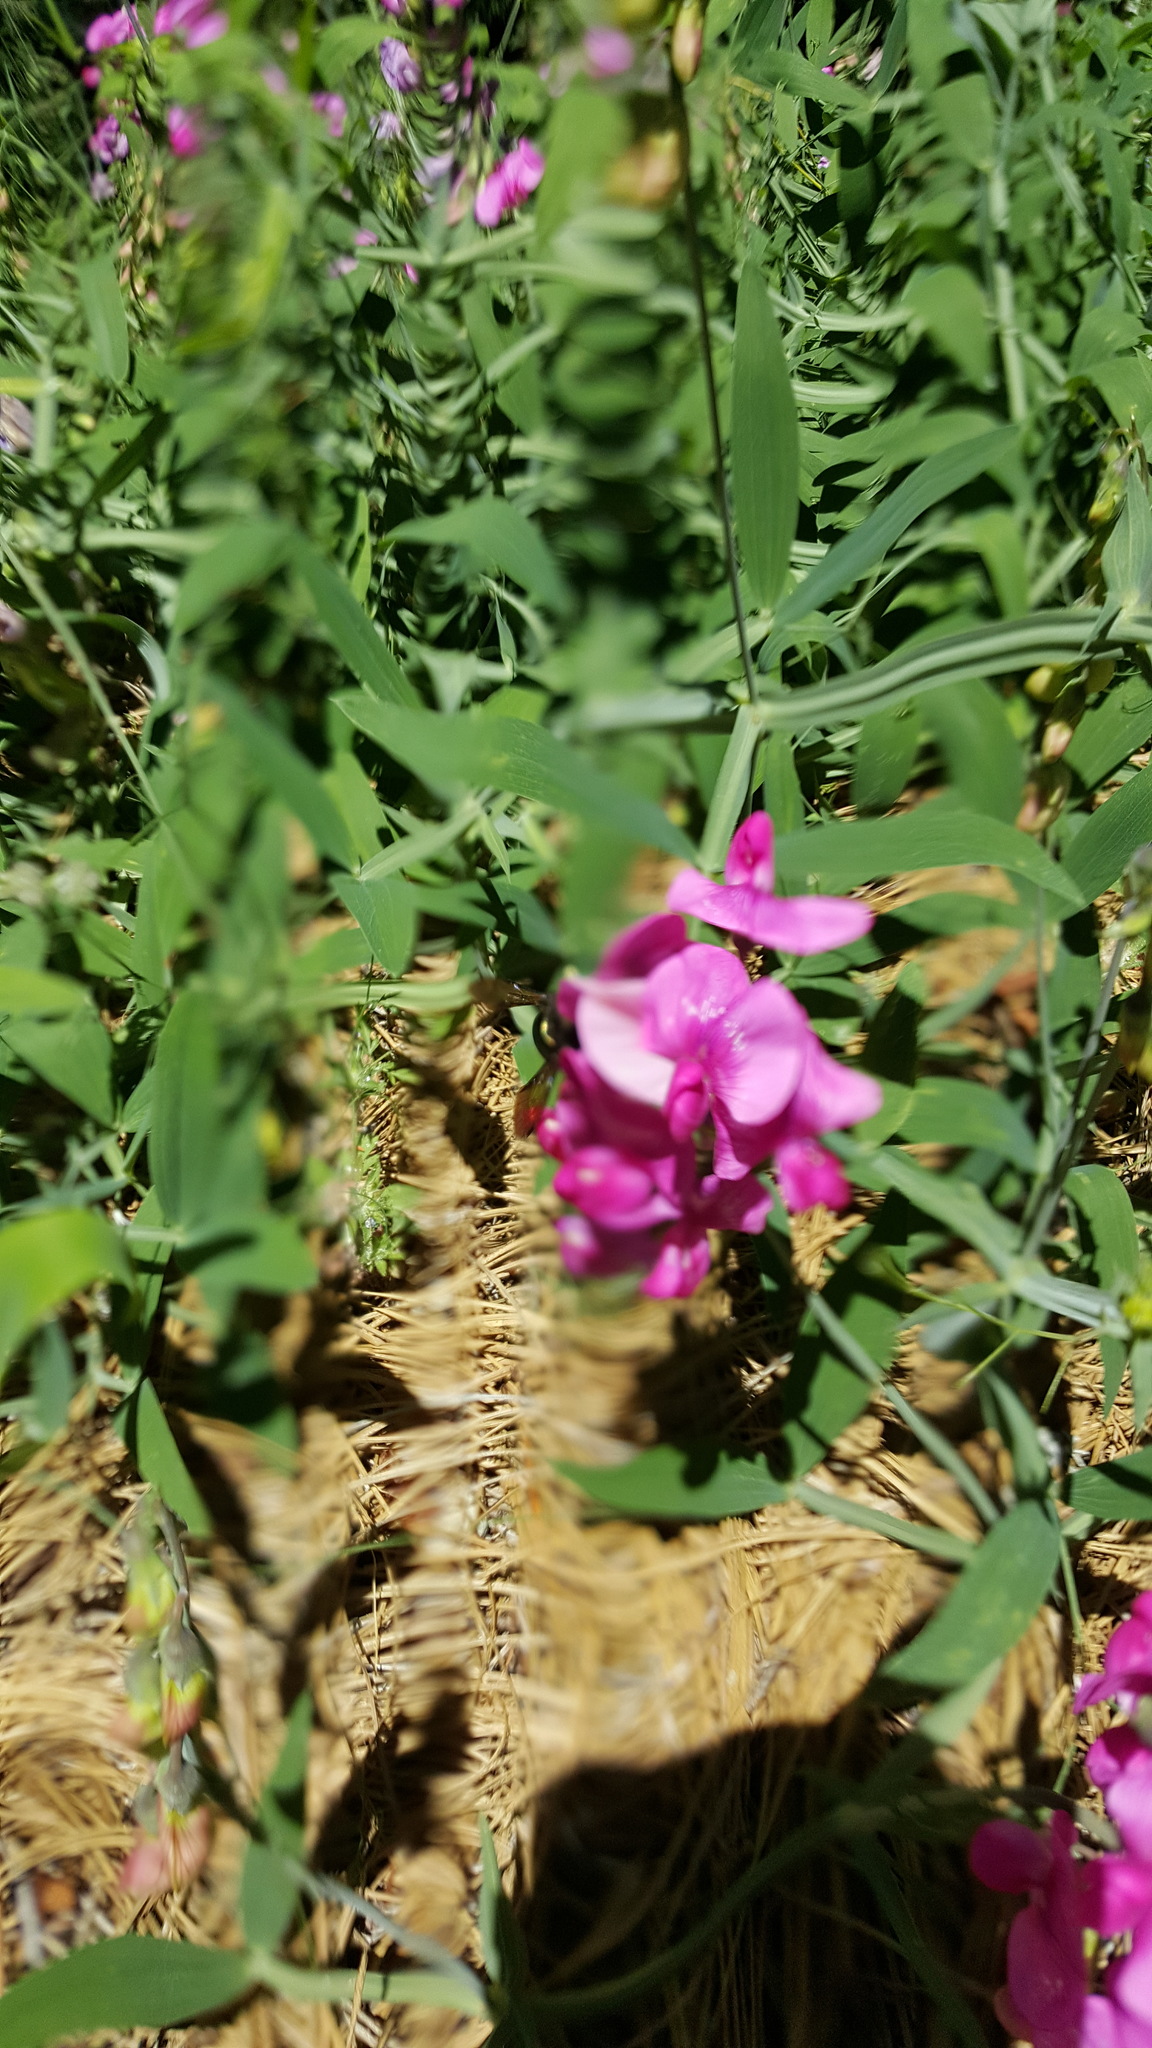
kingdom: Plantae
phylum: Tracheophyta
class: Magnoliopsida
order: Fabales
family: Fabaceae
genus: Lathyrus
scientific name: Lathyrus latifolius
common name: Perennial pea
